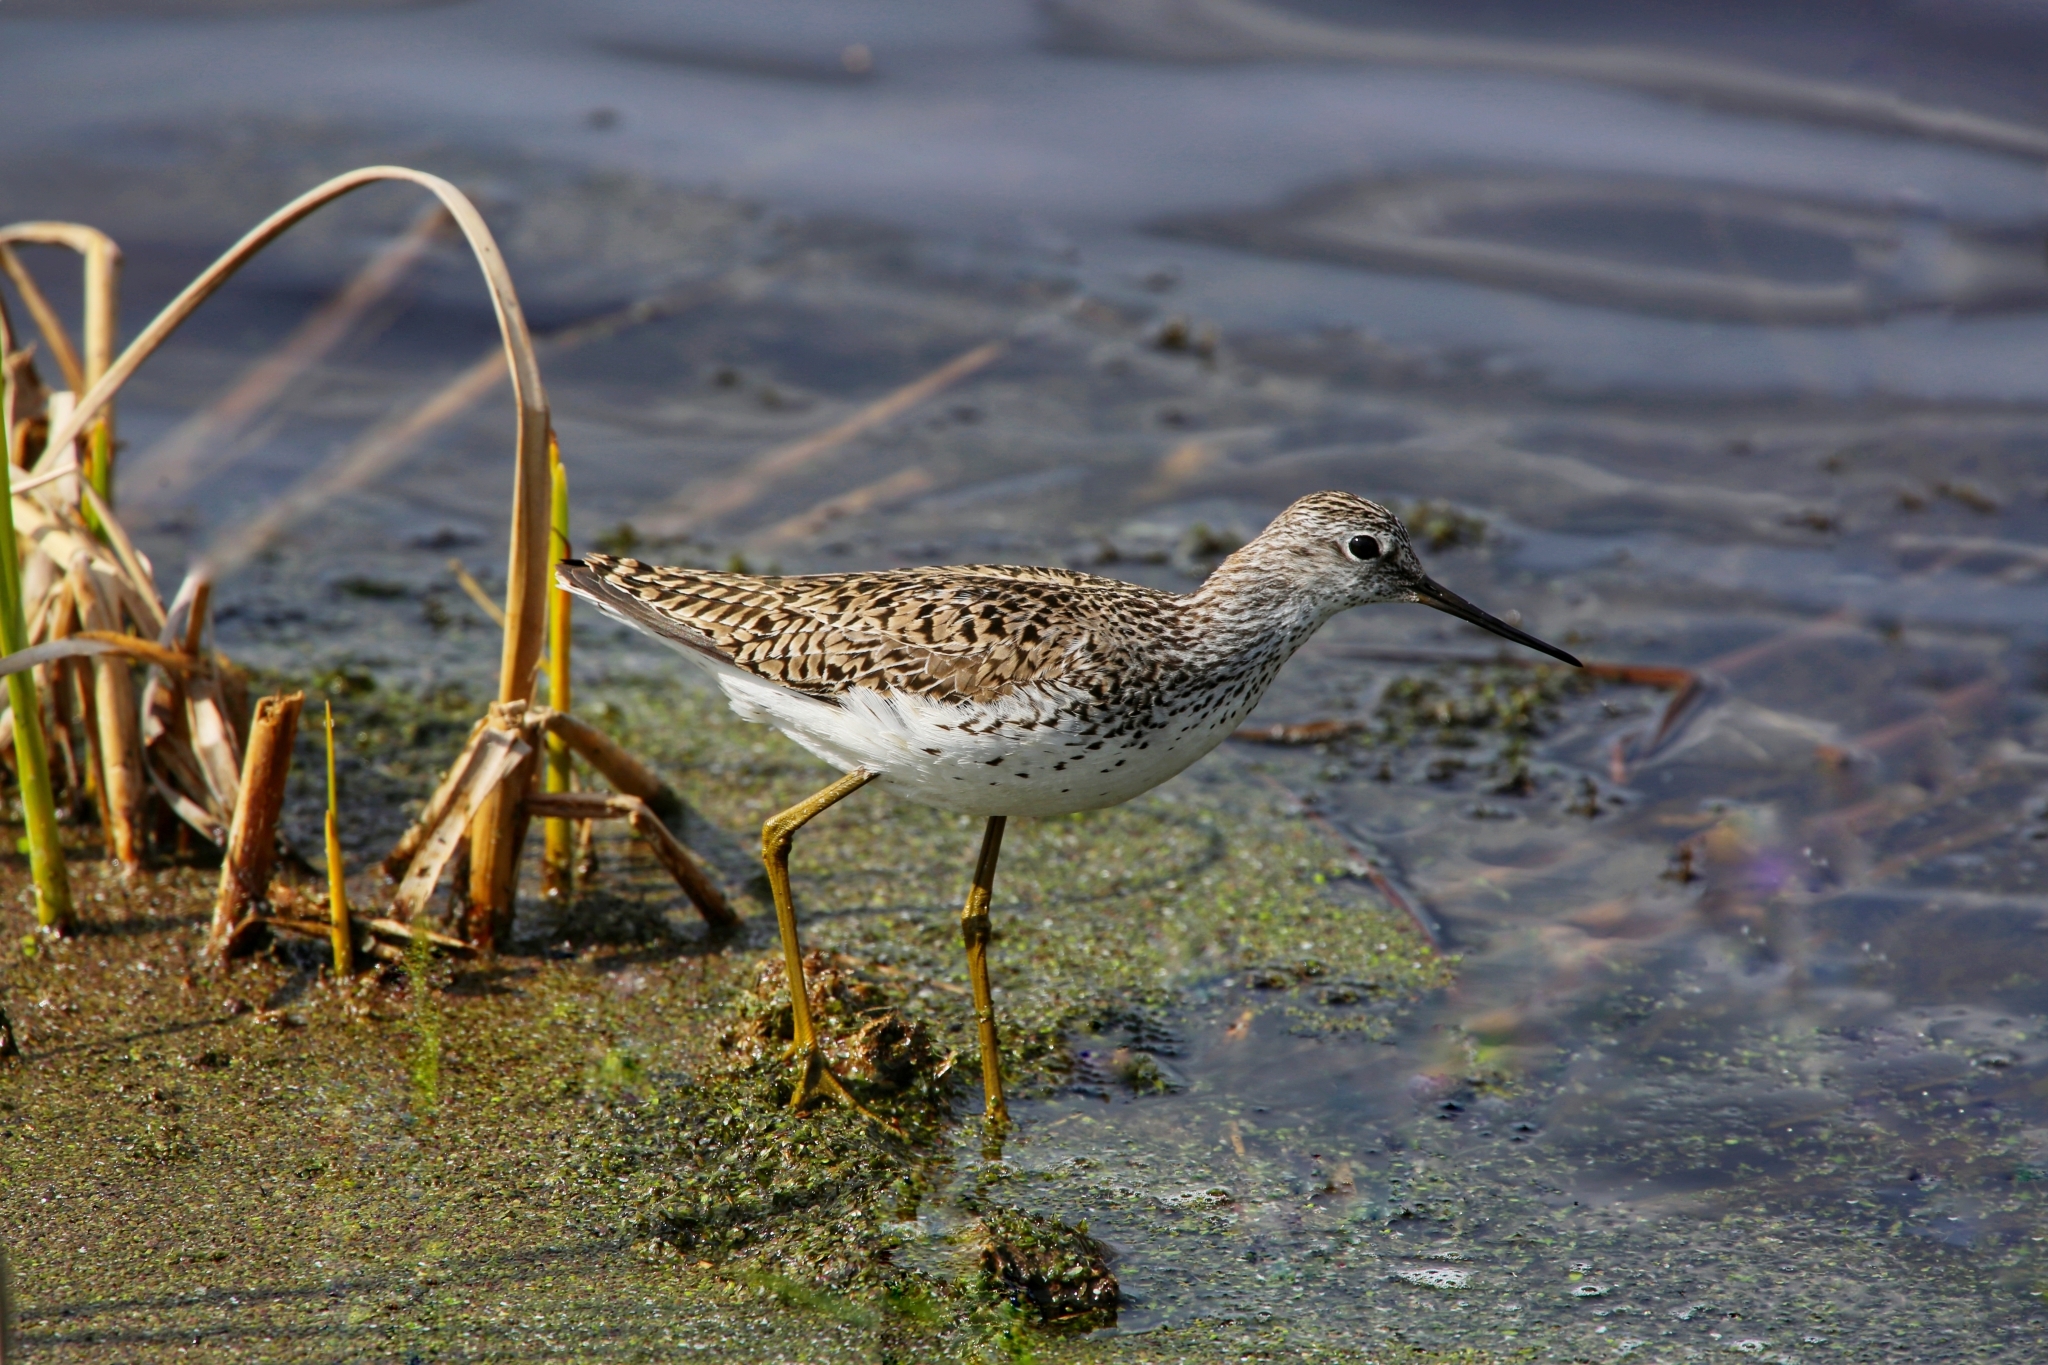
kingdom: Animalia
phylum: Chordata
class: Aves
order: Charadriiformes
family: Scolopacidae
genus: Tringa
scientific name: Tringa stagnatilis
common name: Marsh sandpiper
